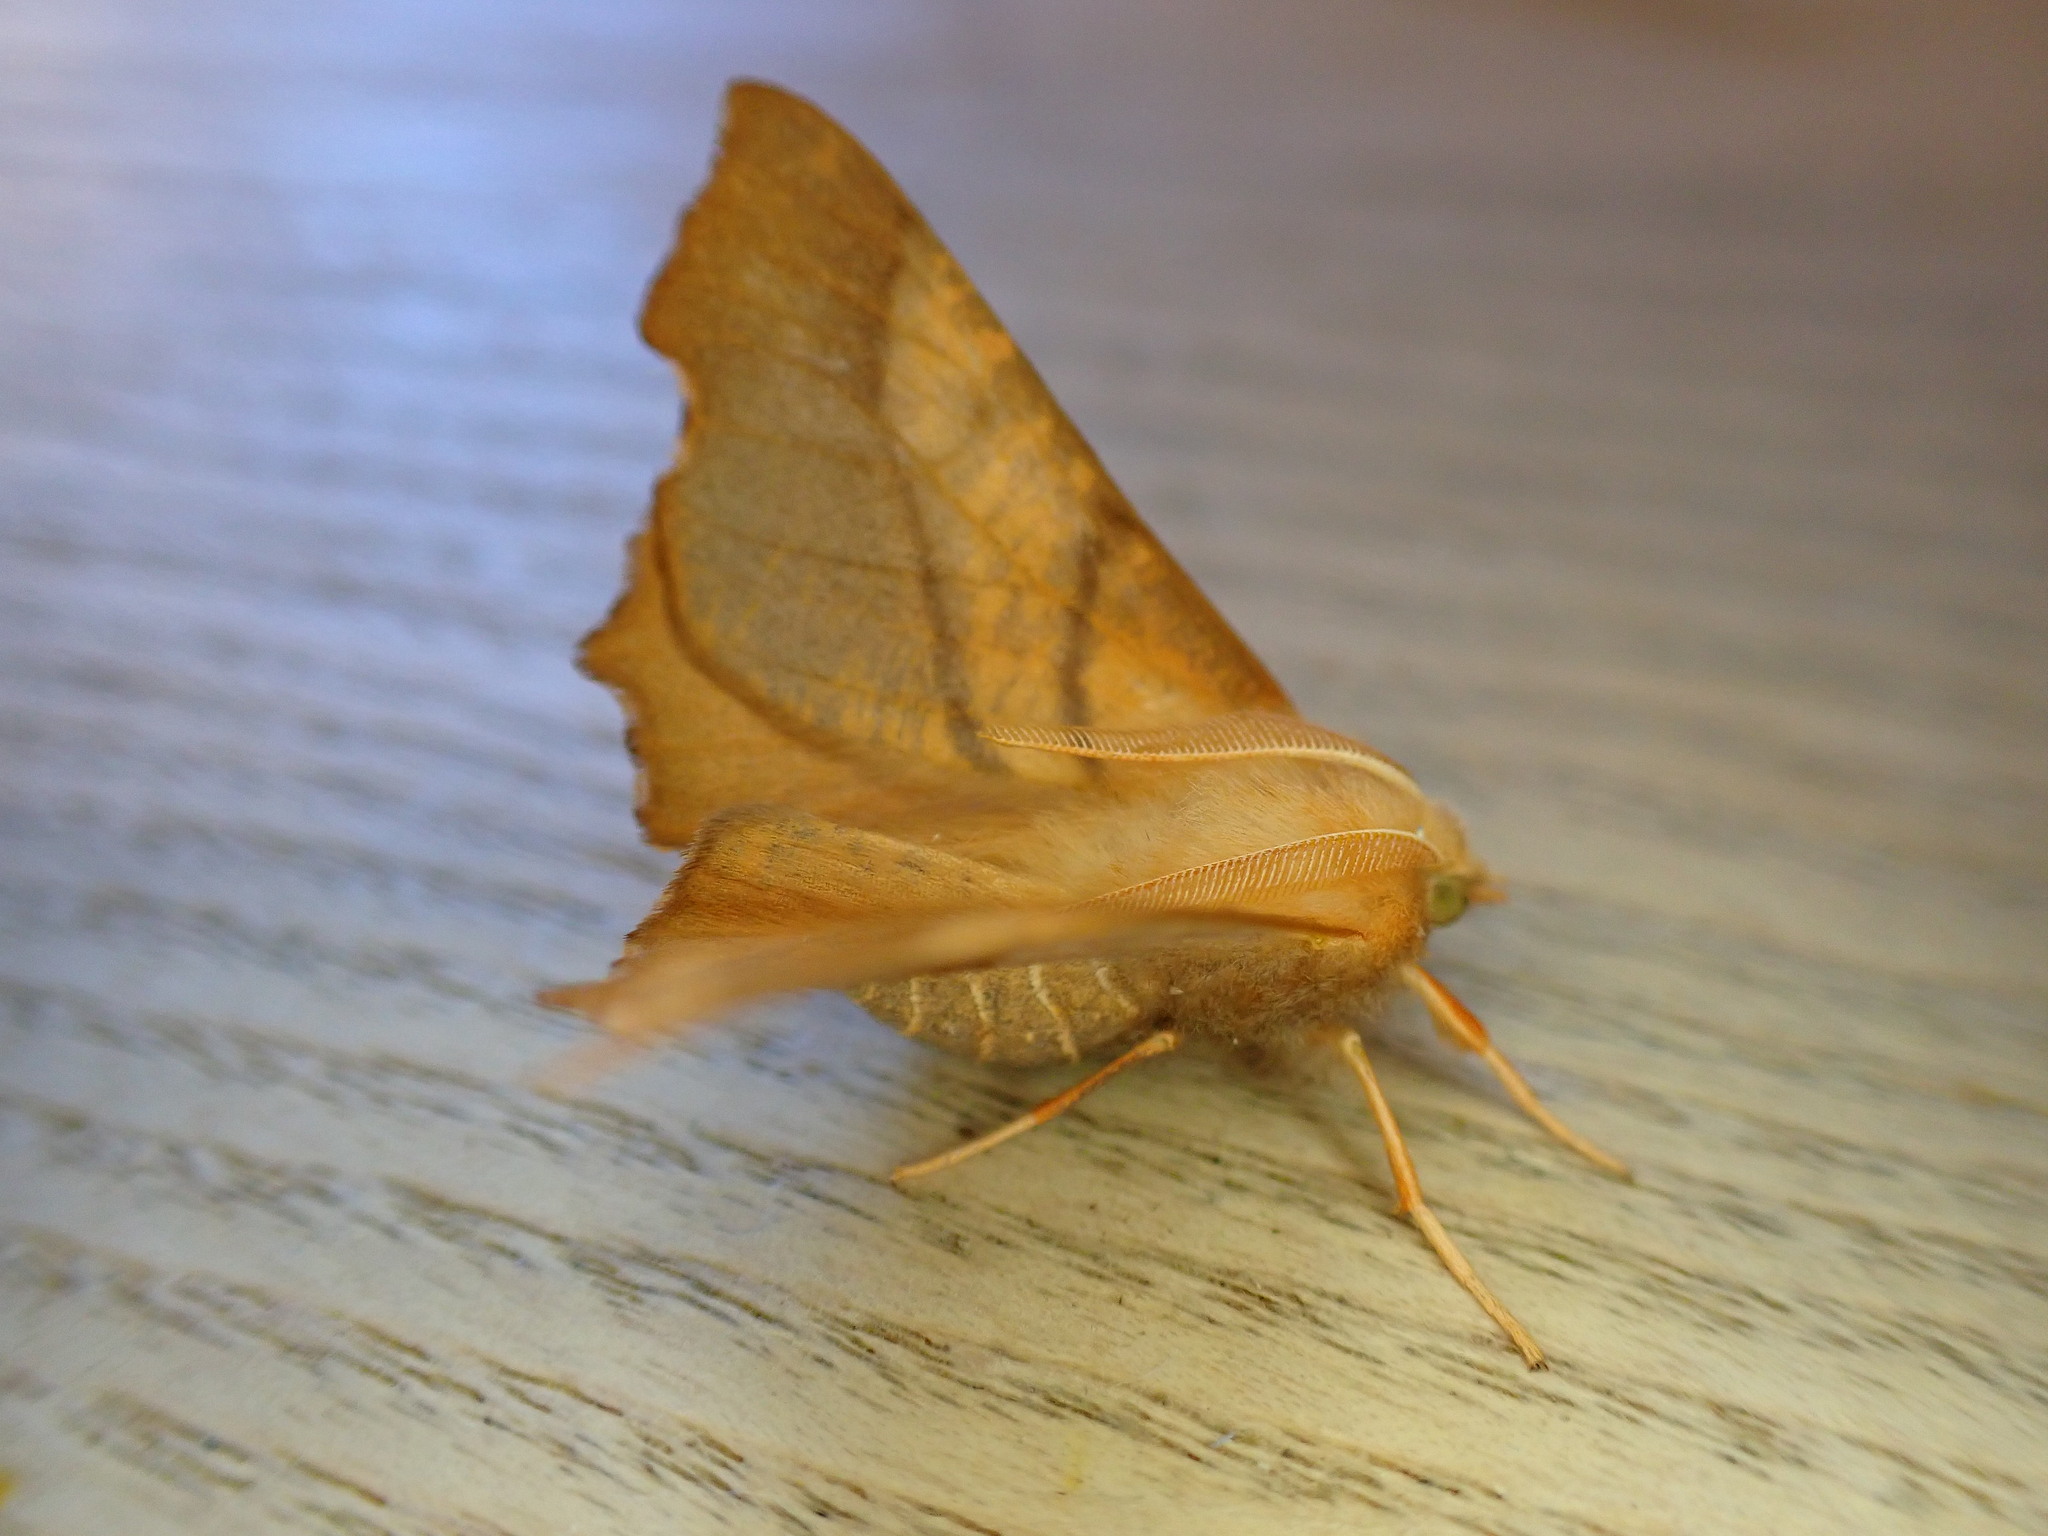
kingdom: Animalia
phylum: Arthropoda
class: Insecta
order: Lepidoptera
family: Geometridae
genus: Ennomos
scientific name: Ennomos fuscantaria
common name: Dusky thorn
